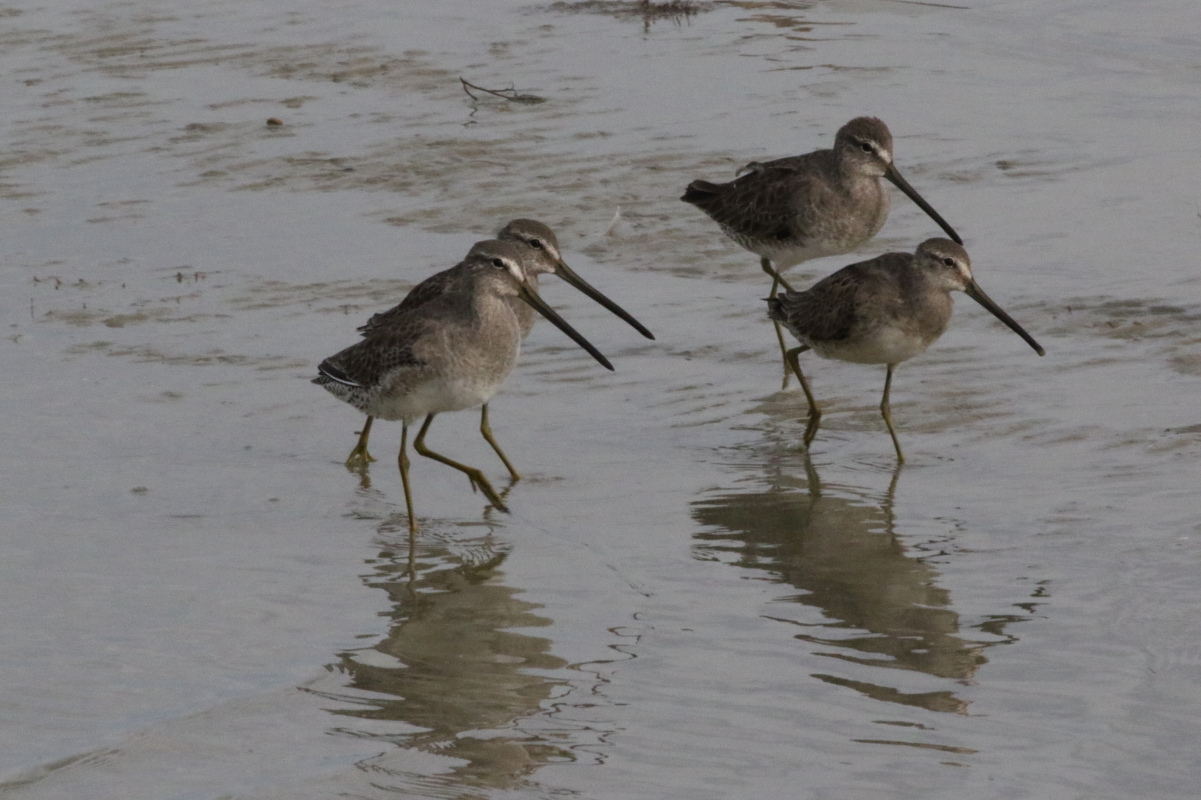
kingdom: Animalia
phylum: Chordata
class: Aves
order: Charadriiformes
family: Scolopacidae
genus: Limnodromus
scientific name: Limnodromus scolopaceus
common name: Long-billed dowitcher
